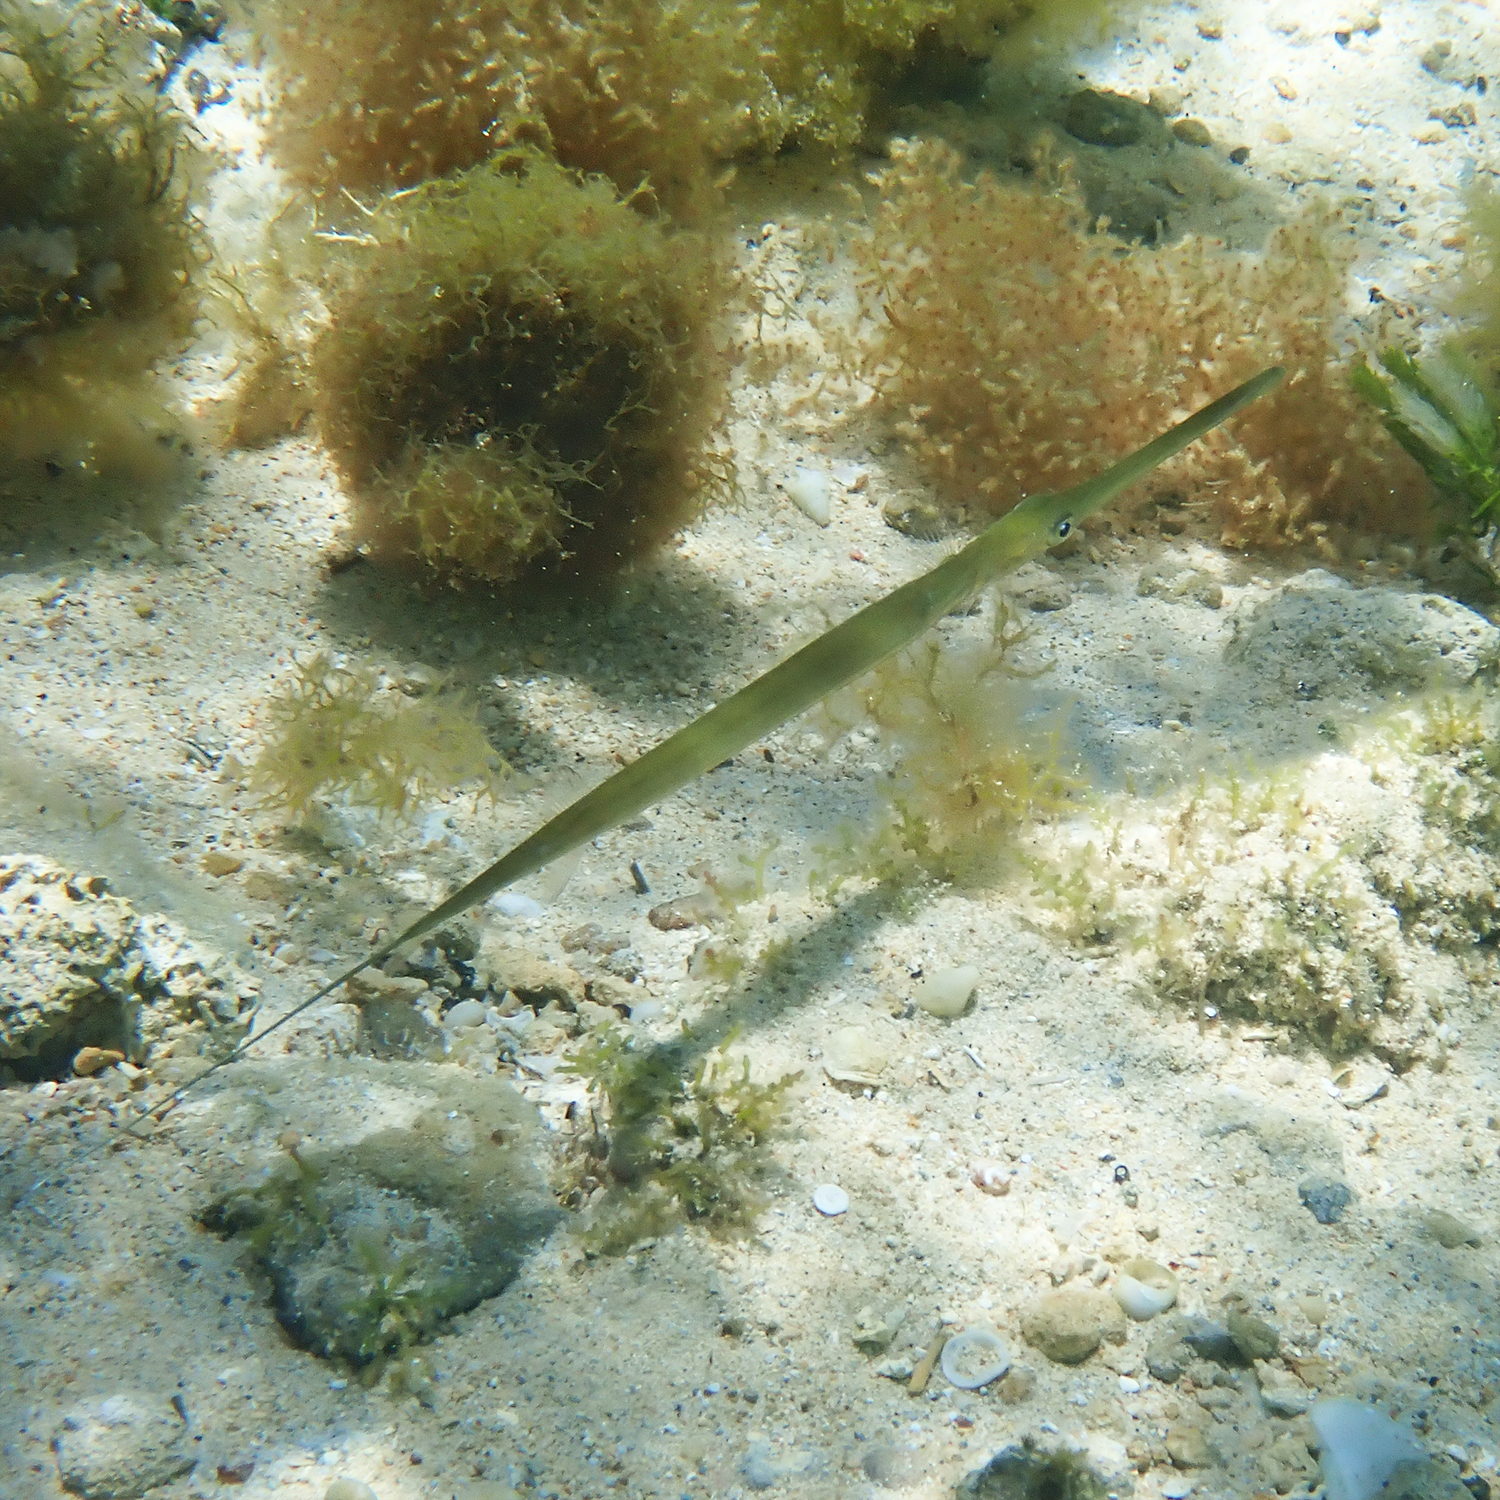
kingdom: Animalia
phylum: Chordata
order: Syngnathiformes
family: Fistulariidae
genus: Fistularia
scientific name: Fistularia commersonii
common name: Bluespotted cornetfish
